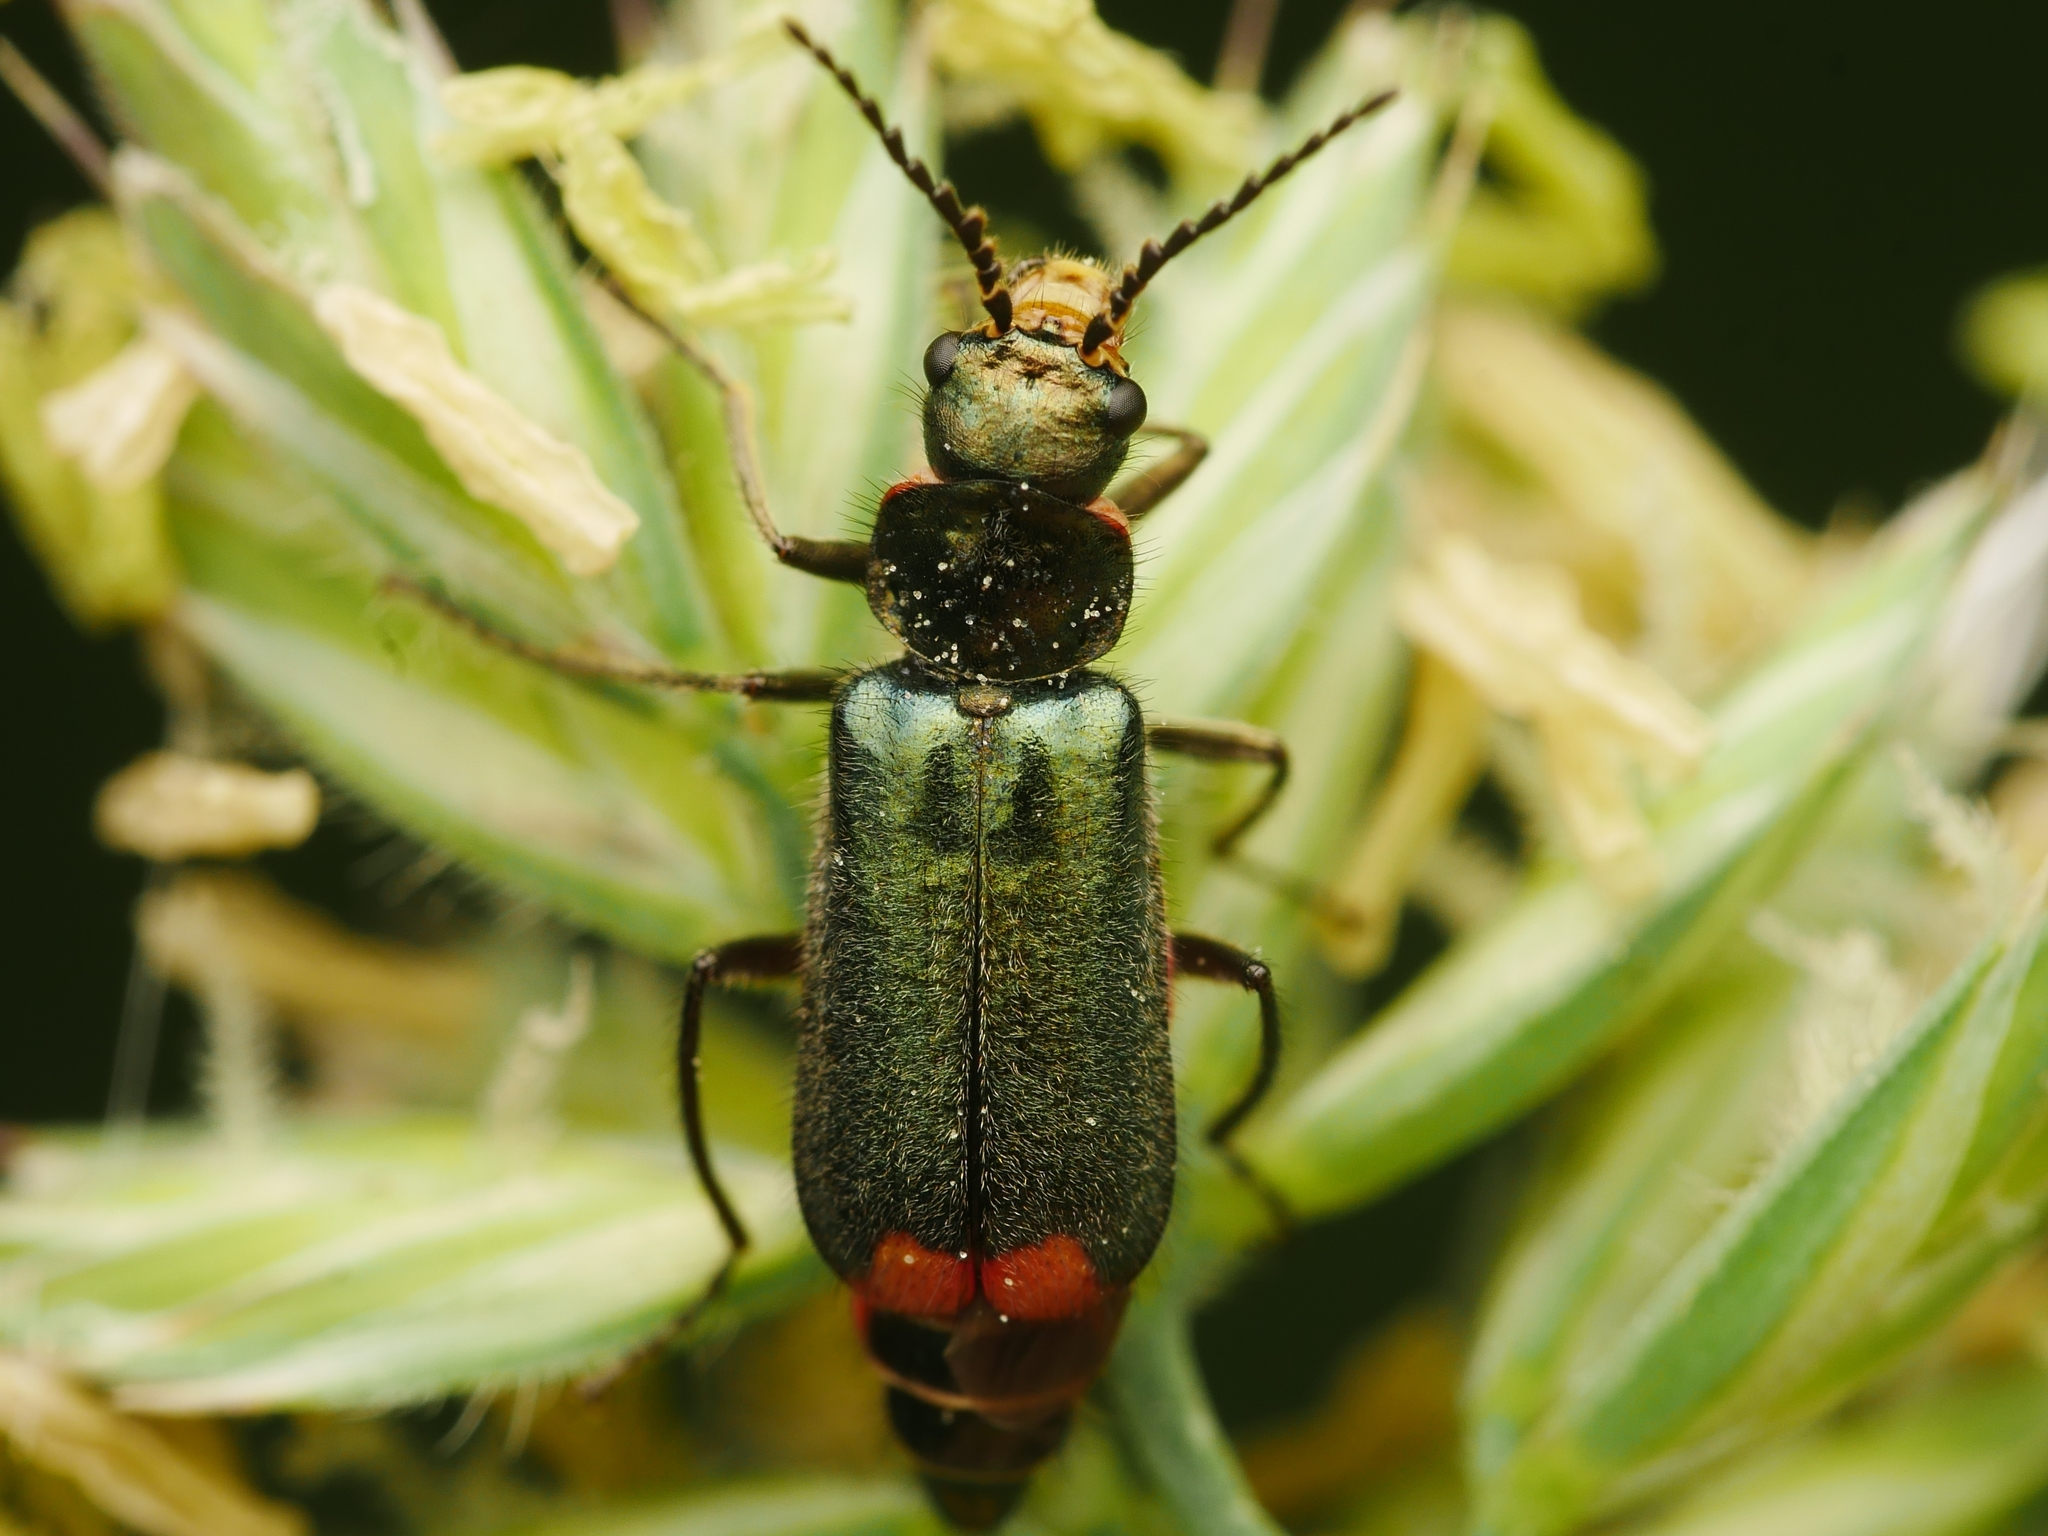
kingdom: Animalia
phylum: Arthropoda
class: Insecta
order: Coleoptera
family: Melyridae
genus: Malachius
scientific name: Malachius bipustulatus
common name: Malachite beetle
